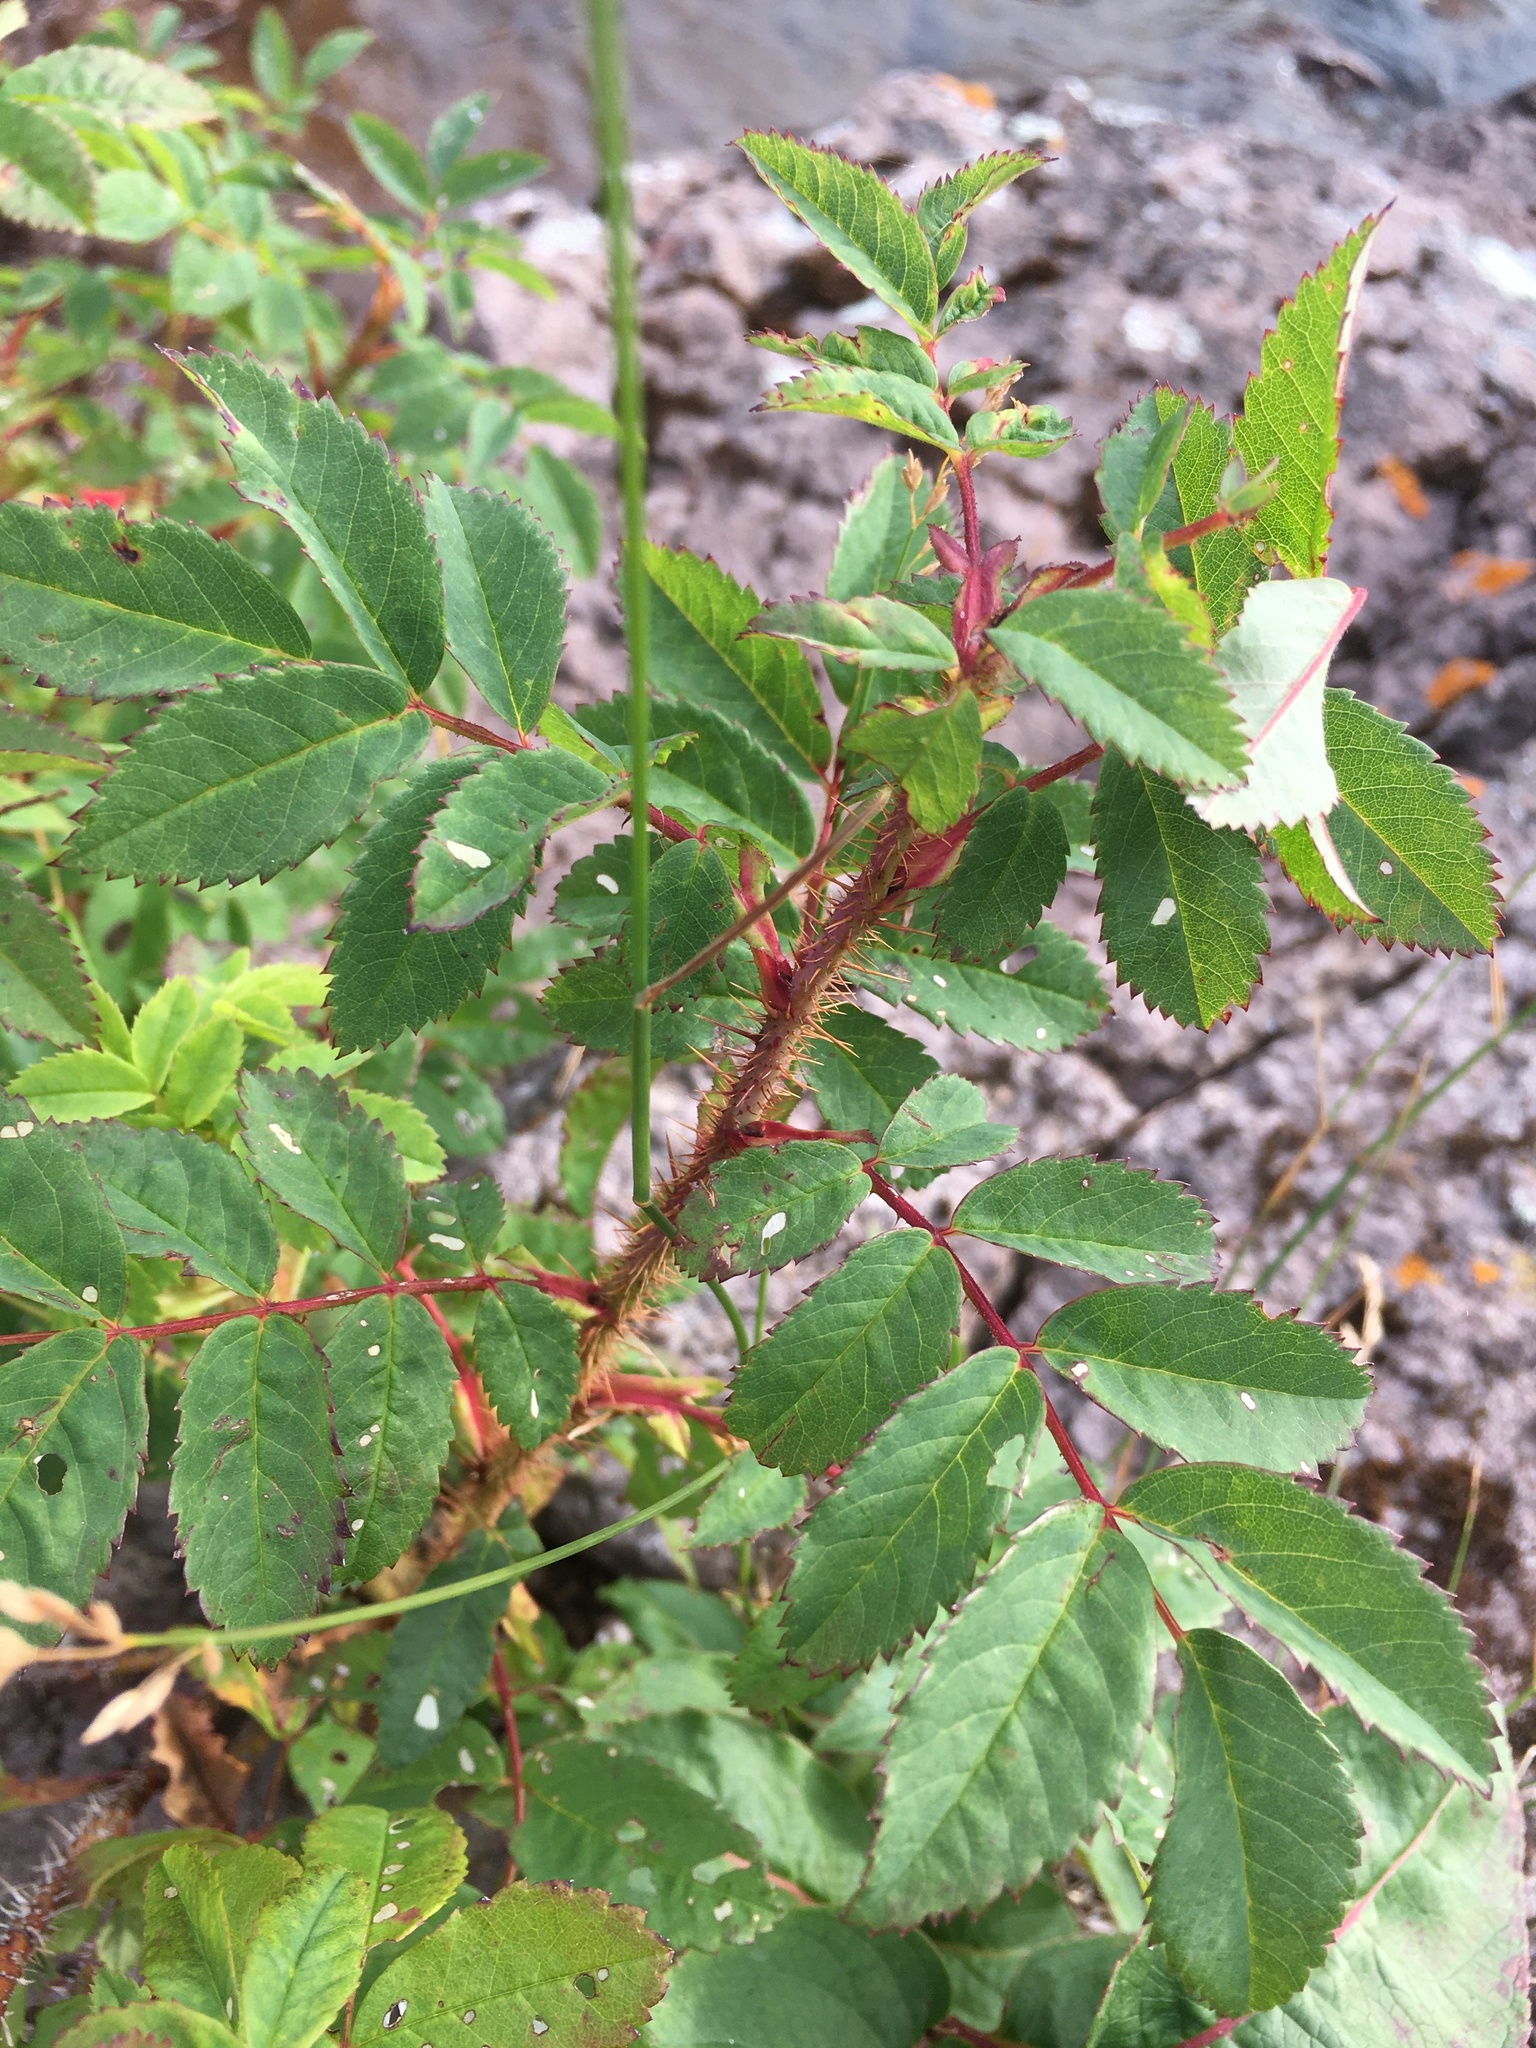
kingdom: Plantae
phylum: Tracheophyta
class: Magnoliopsida
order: Rosales
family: Rosaceae
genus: Rosa
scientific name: Rosa acicularis
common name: Prickly rose
